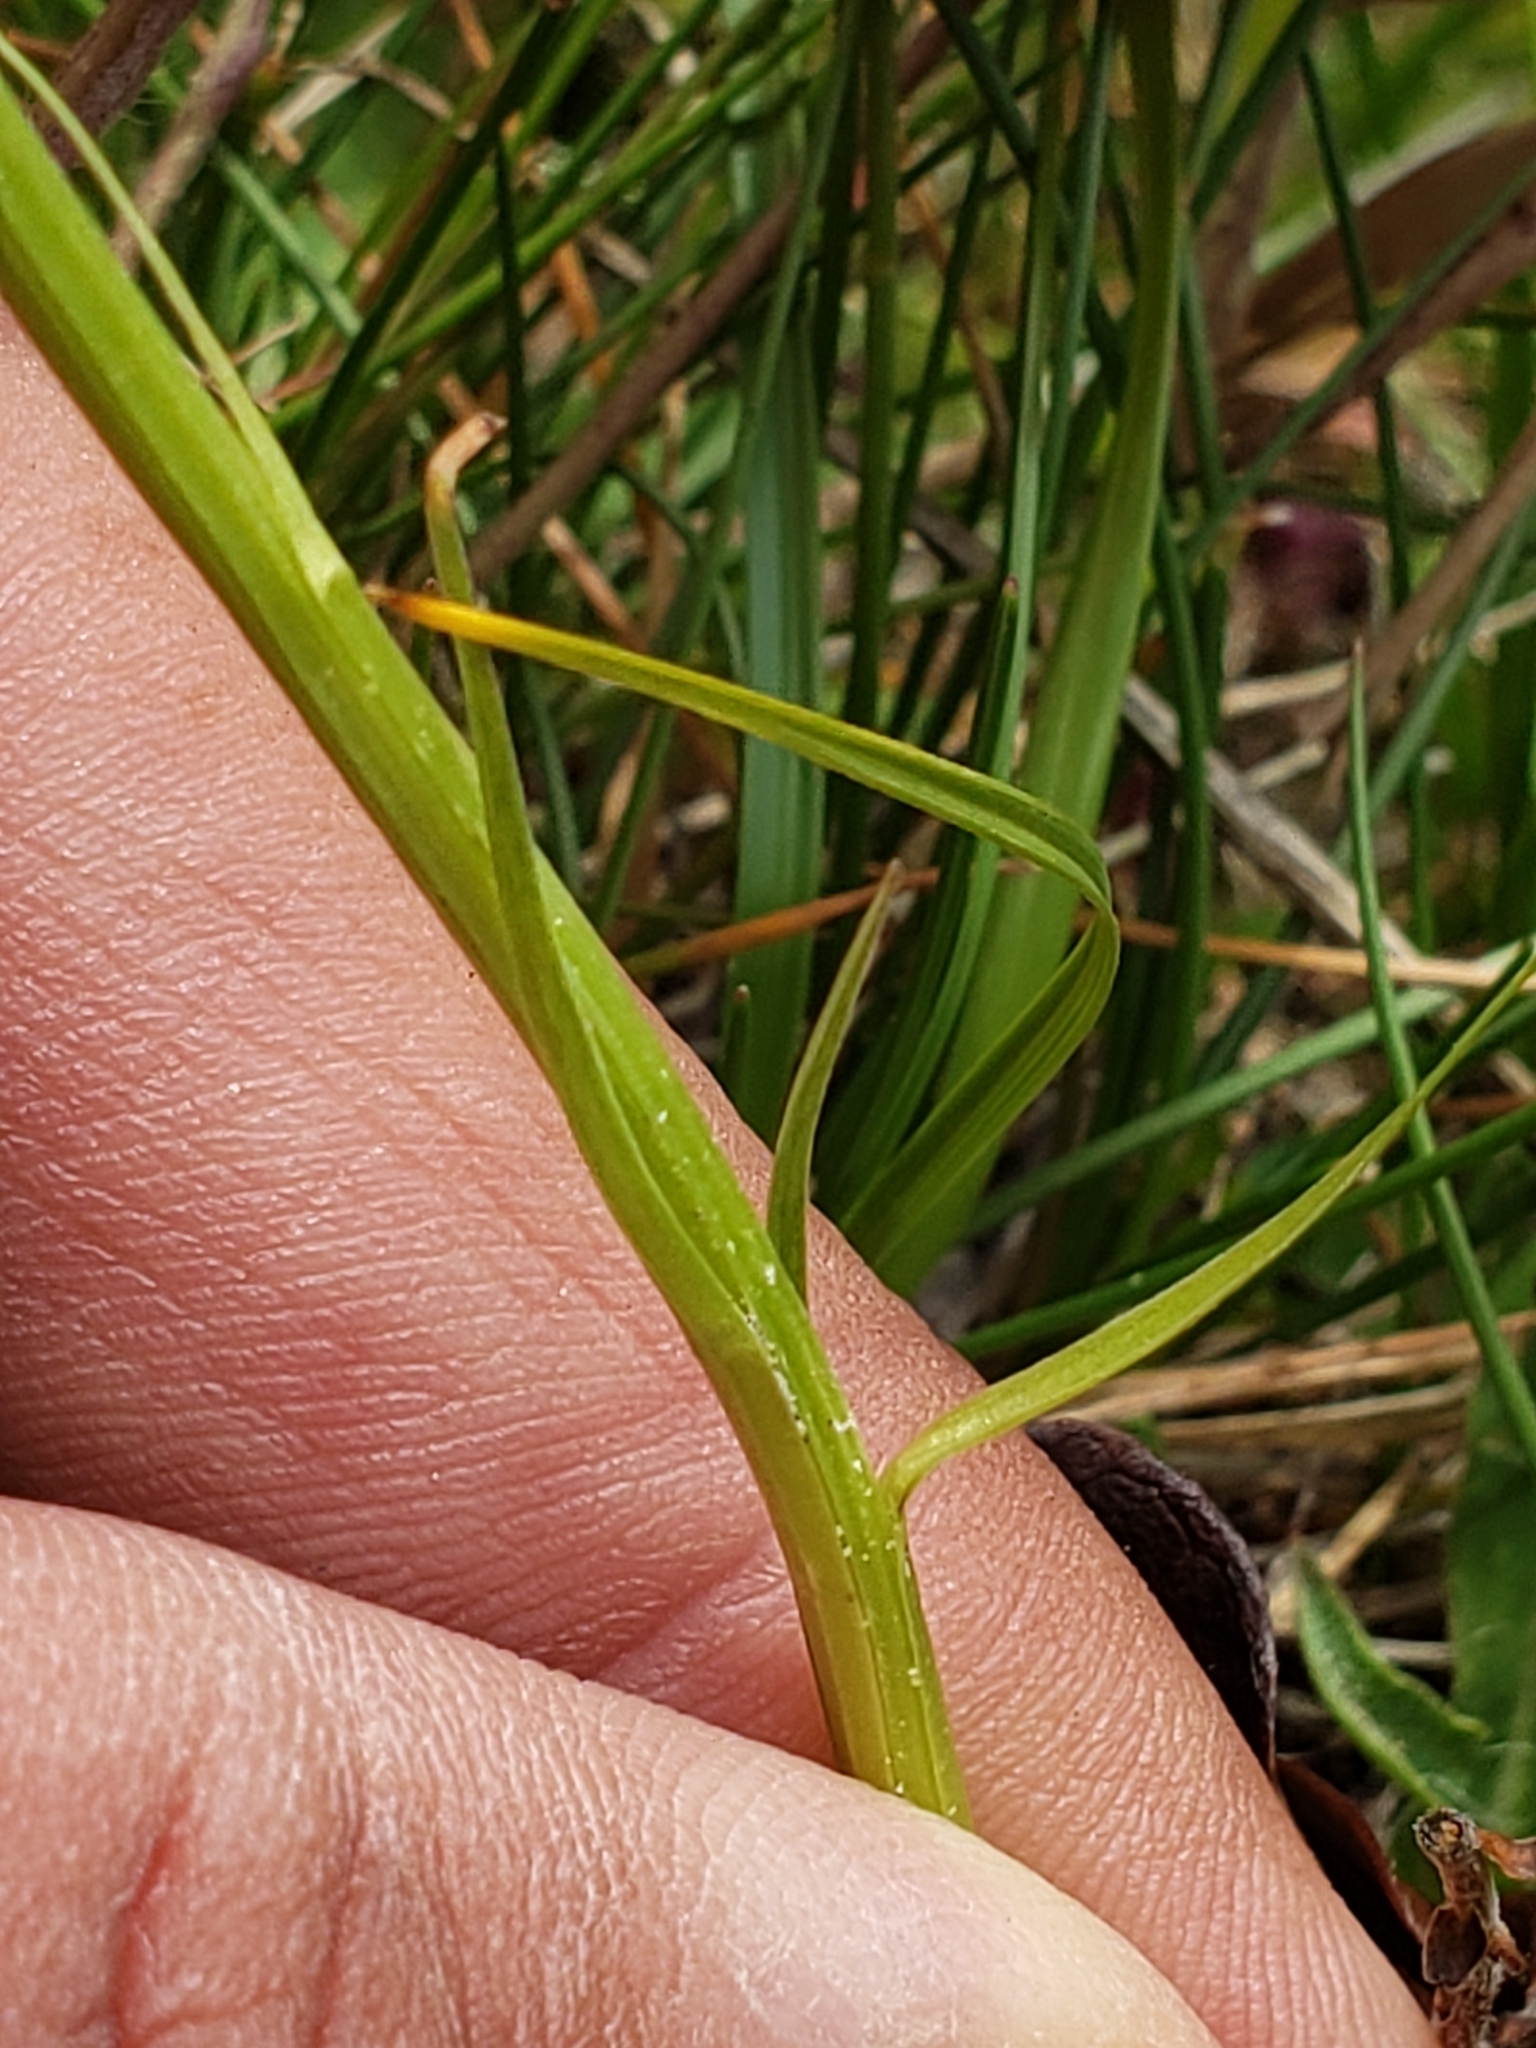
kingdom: Plantae
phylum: Tracheophyta
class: Liliopsida
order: Asparagales
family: Orchidaceae
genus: Gymnadenia
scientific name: Gymnadenia rhellicani
